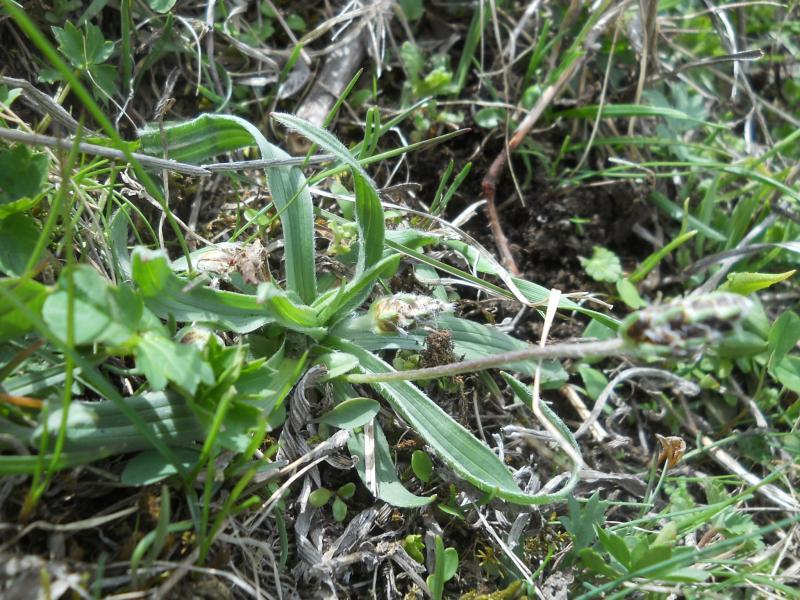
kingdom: Plantae
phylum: Tracheophyta
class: Magnoliopsida
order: Lamiales
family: Plantaginaceae
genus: Plantago
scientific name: Plantago lanceolata
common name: Ribwort plantain
